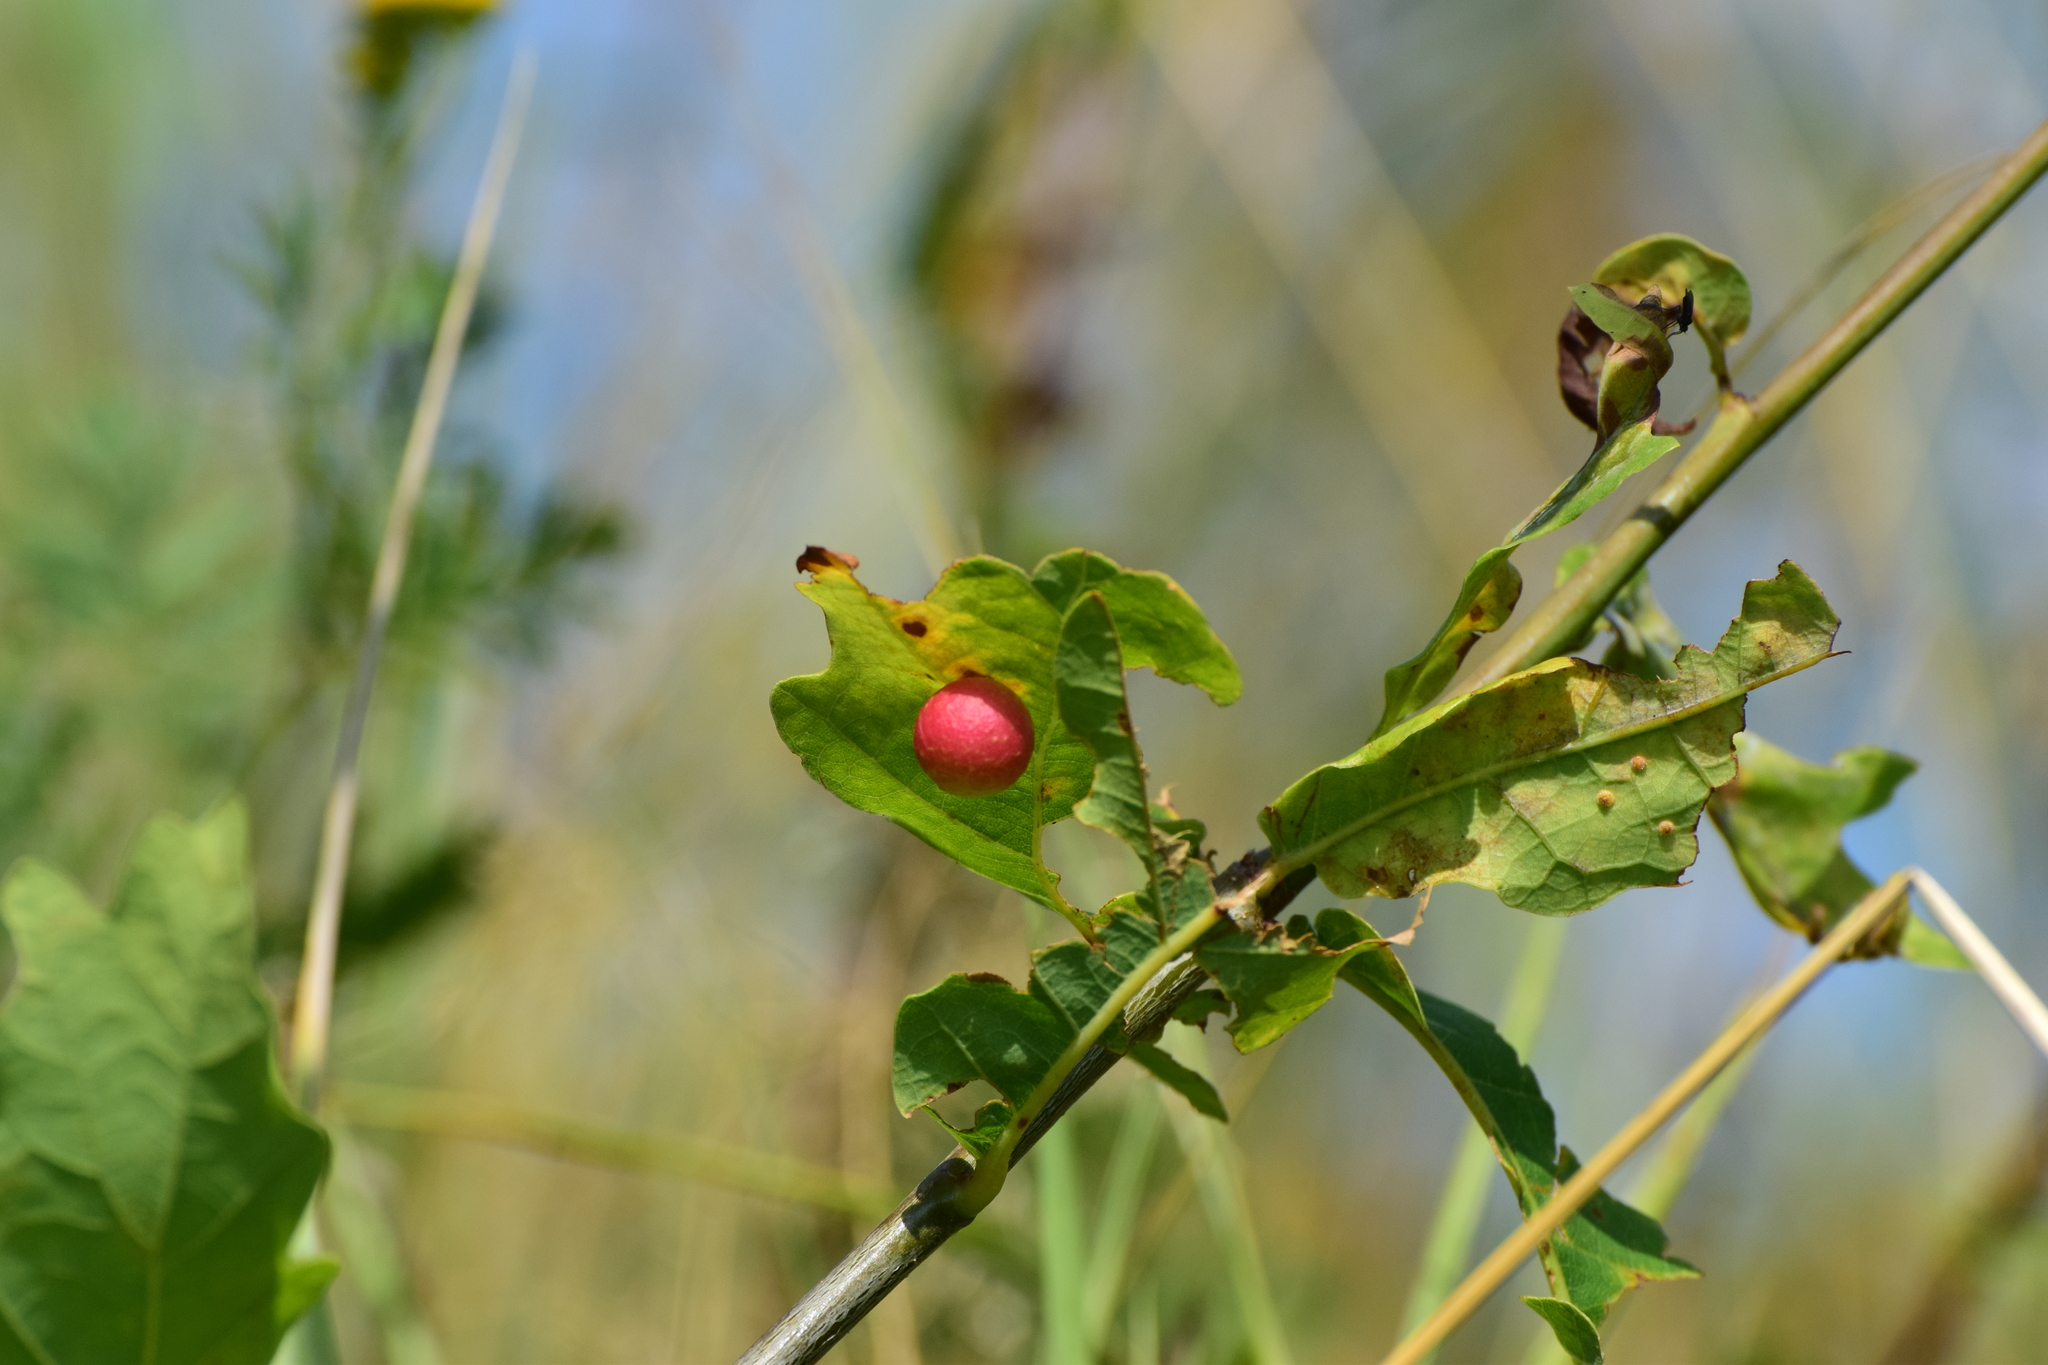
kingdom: Animalia
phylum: Arthropoda
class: Insecta
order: Hymenoptera
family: Cynipidae
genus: Cynips
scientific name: Cynips quercusfolii
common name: Cherry gall
